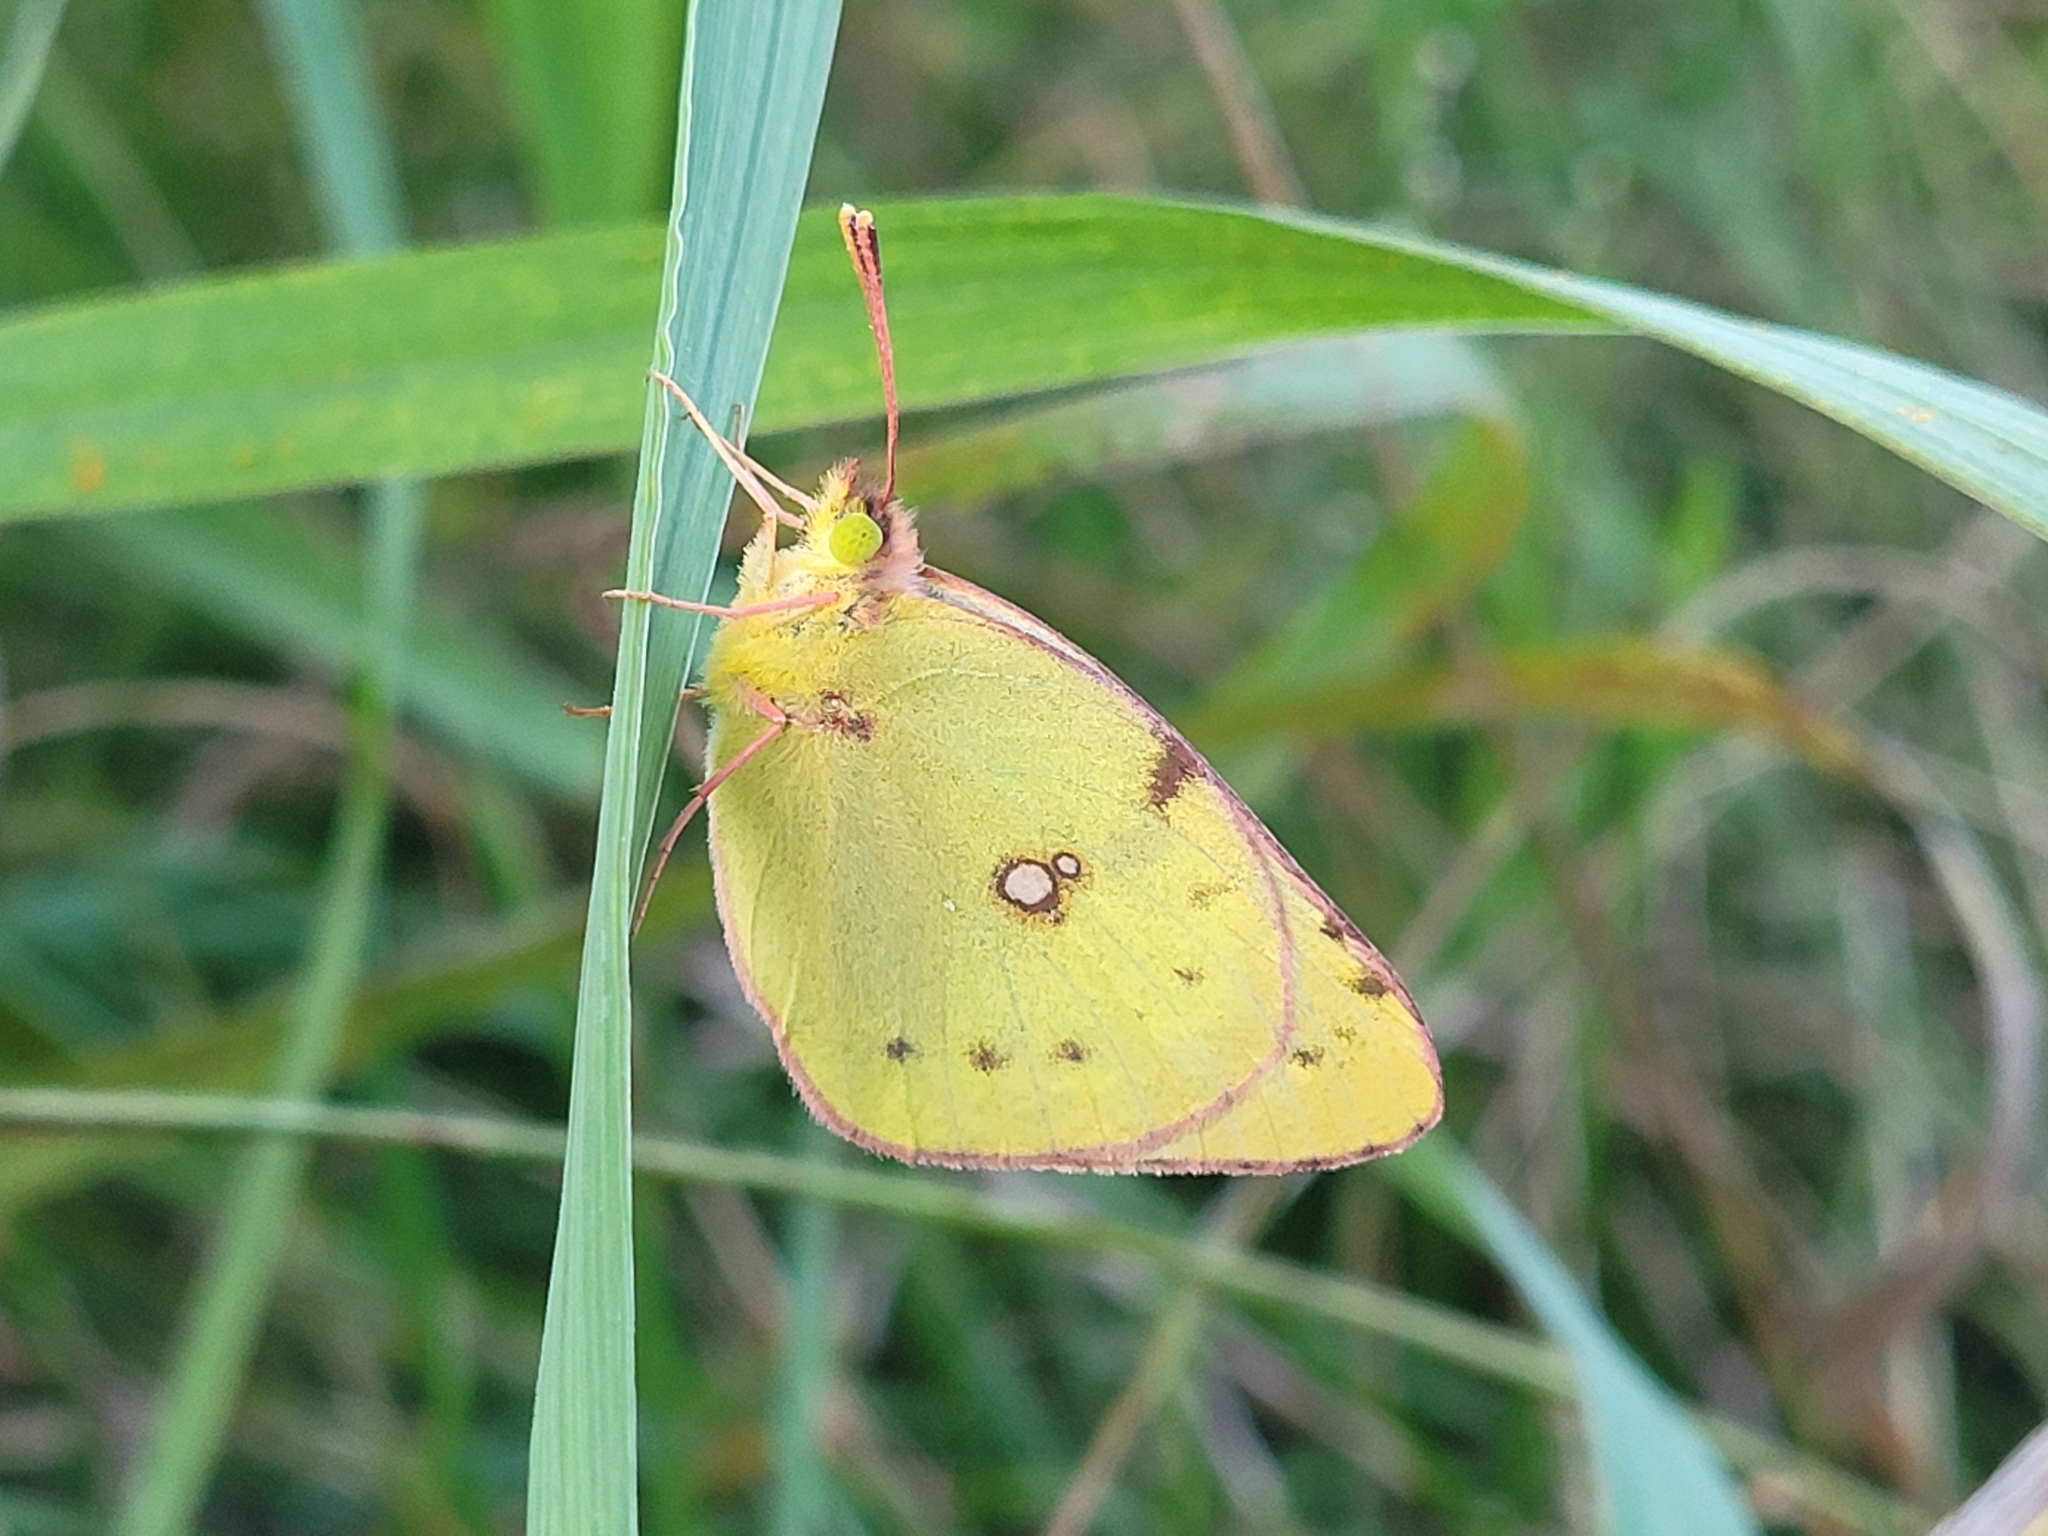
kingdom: Animalia
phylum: Arthropoda
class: Insecta
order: Lepidoptera
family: Pieridae
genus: Colias
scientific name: Colias hyale
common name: Pale clouded yellow
